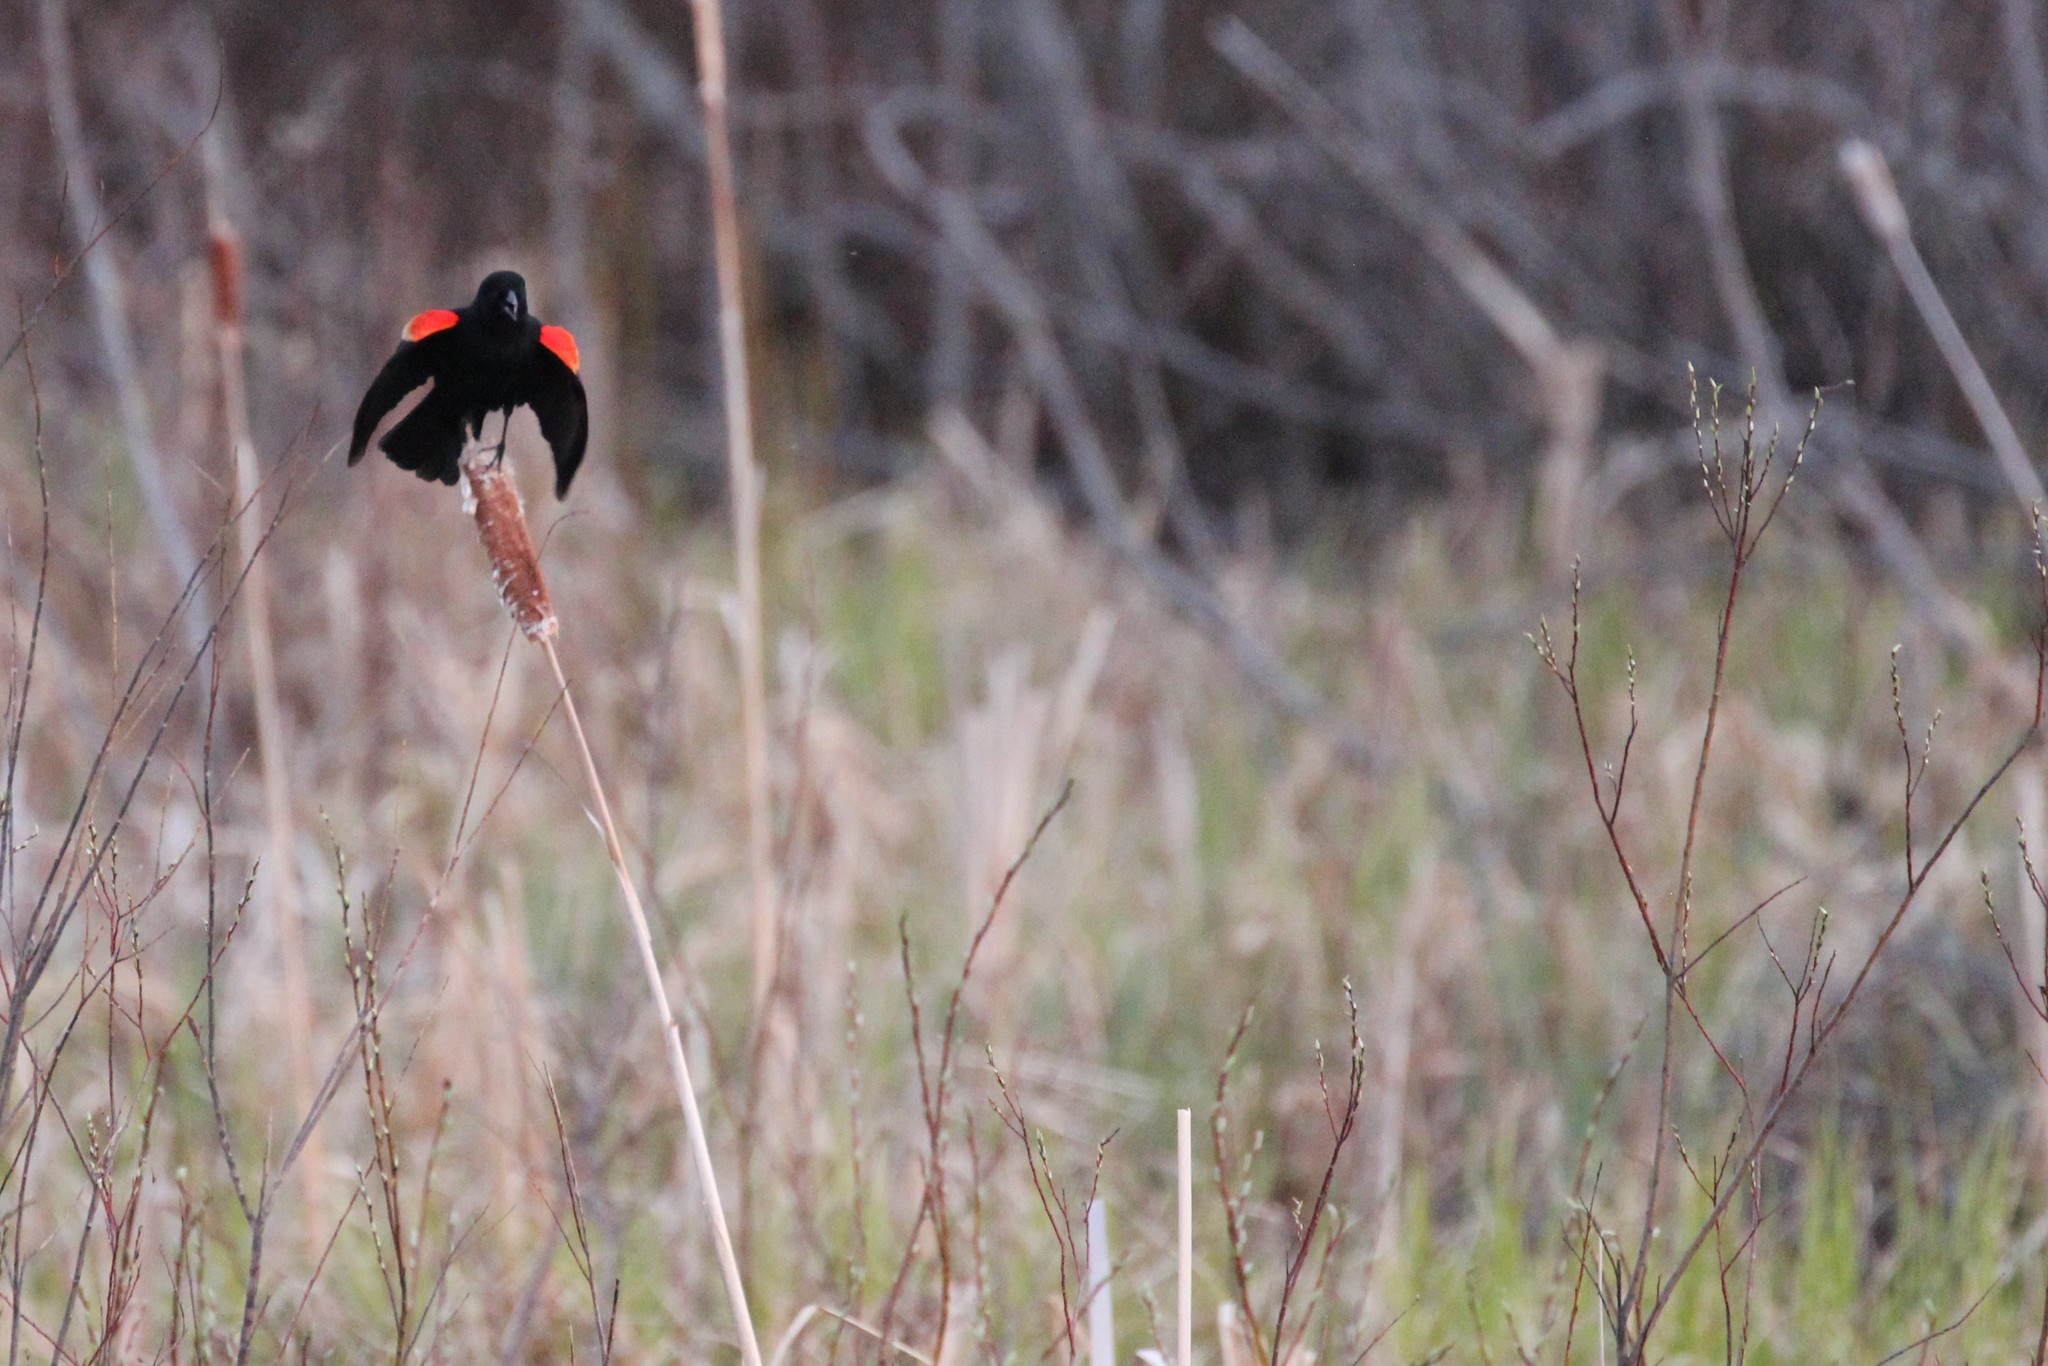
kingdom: Animalia
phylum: Chordata
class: Aves
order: Passeriformes
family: Icteridae
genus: Agelaius
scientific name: Agelaius phoeniceus
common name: Red-winged blackbird
